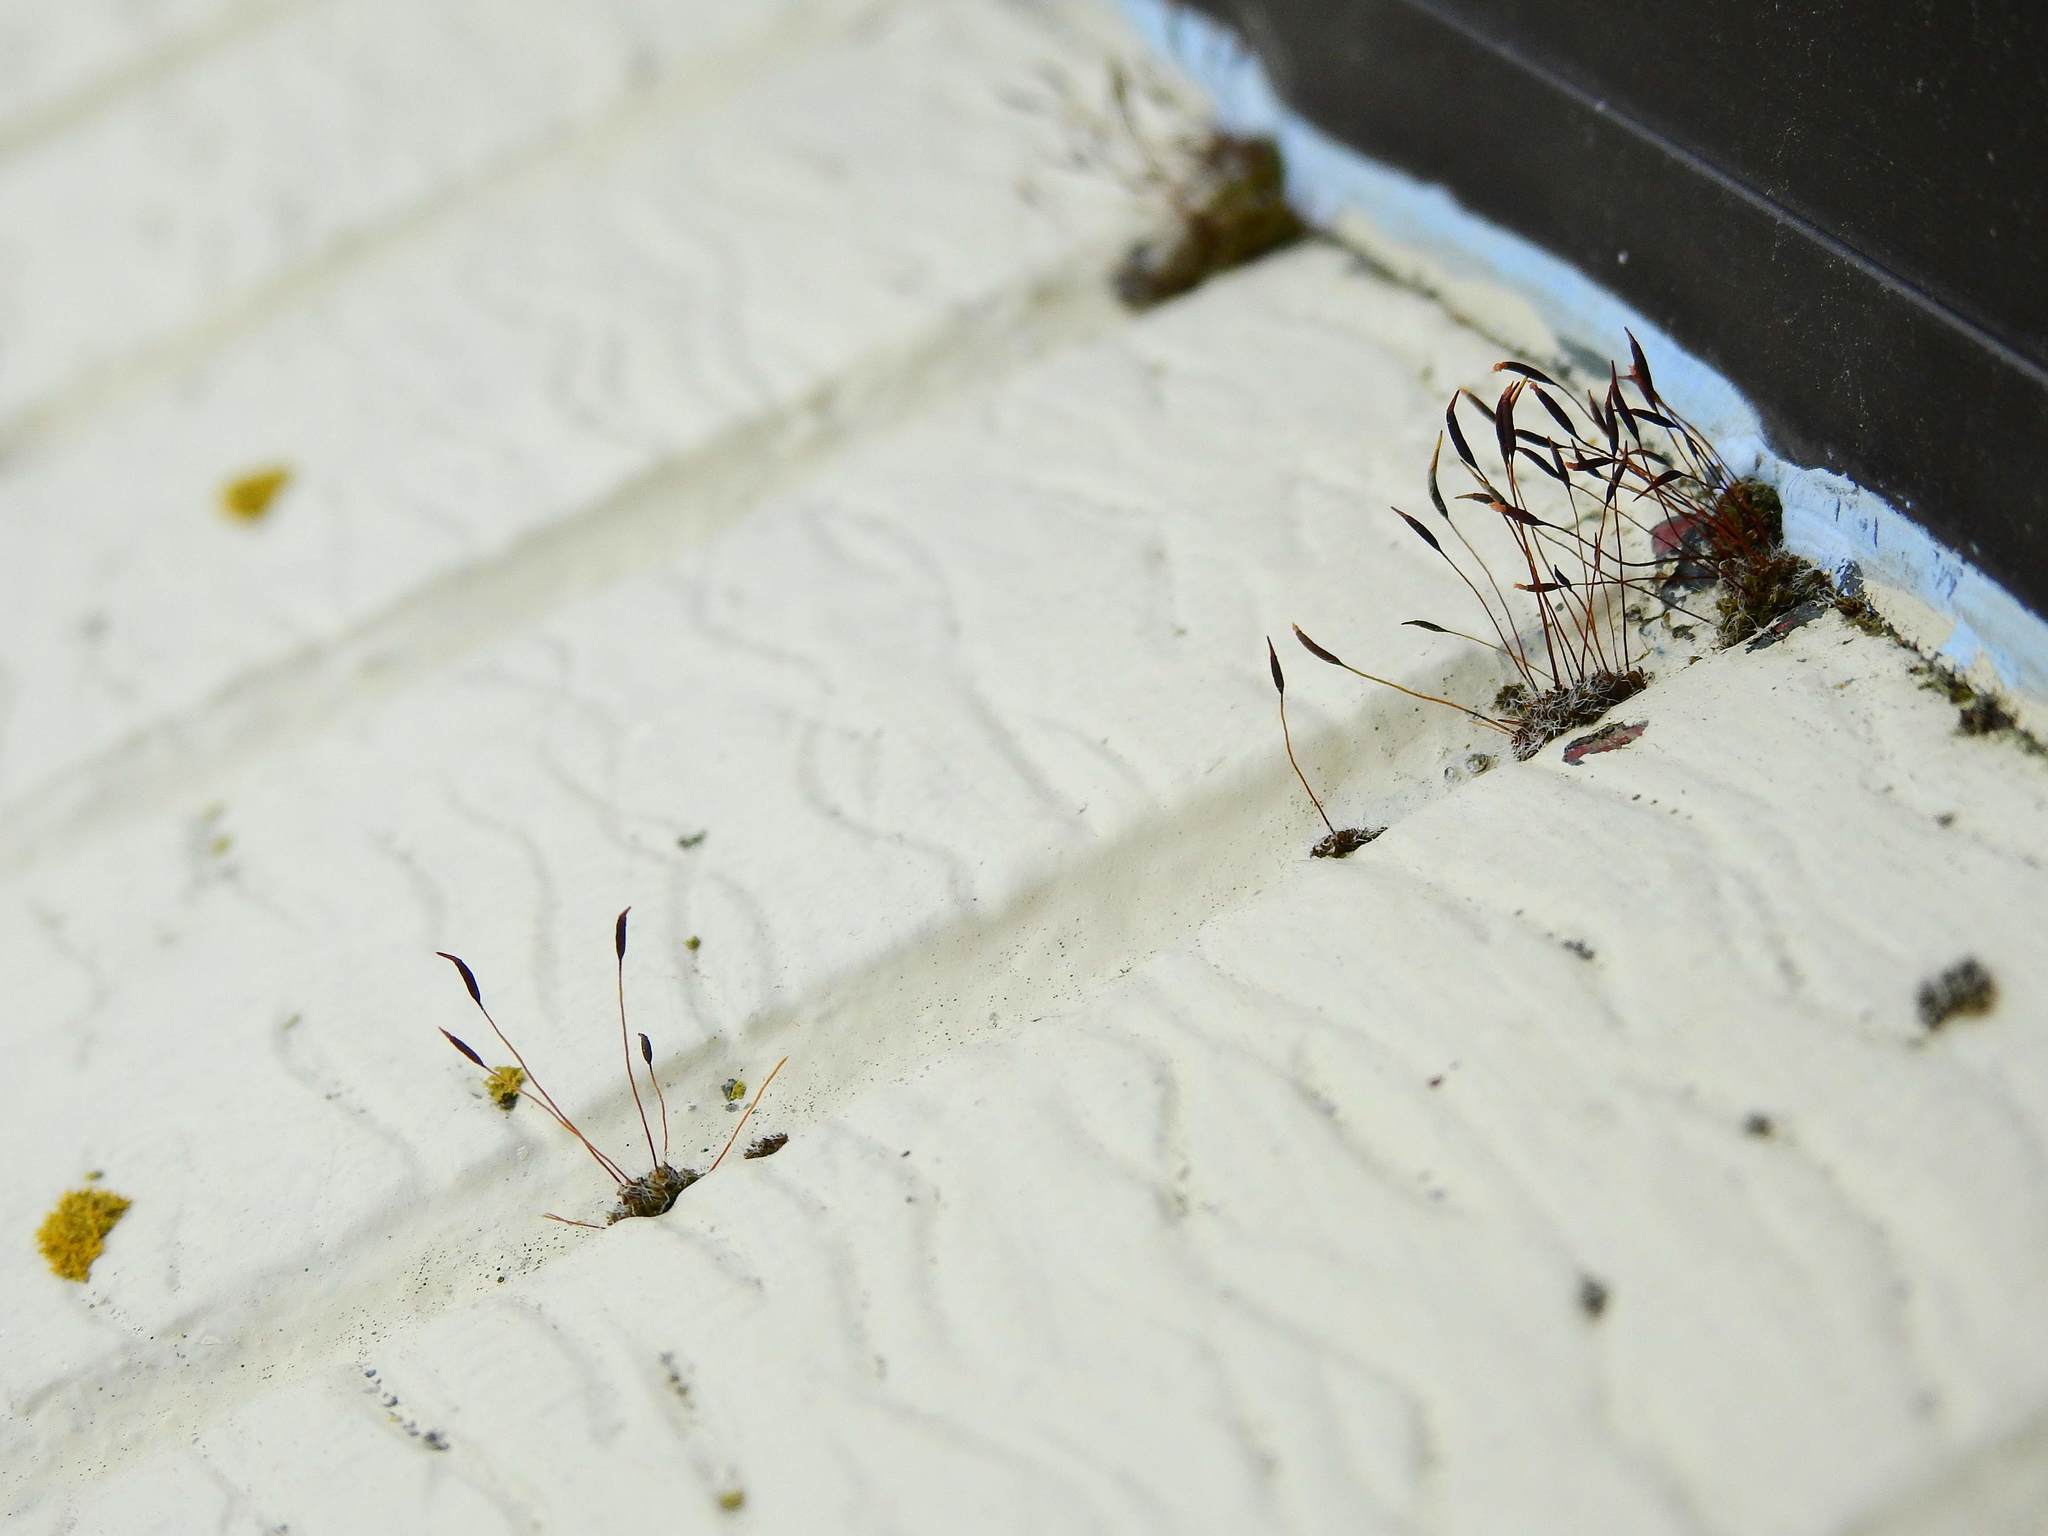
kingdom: Plantae
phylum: Bryophyta
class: Bryopsida
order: Pottiales
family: Pottiaceae
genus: Tortula
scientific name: Tortula muralis
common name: Wall screw-moss
